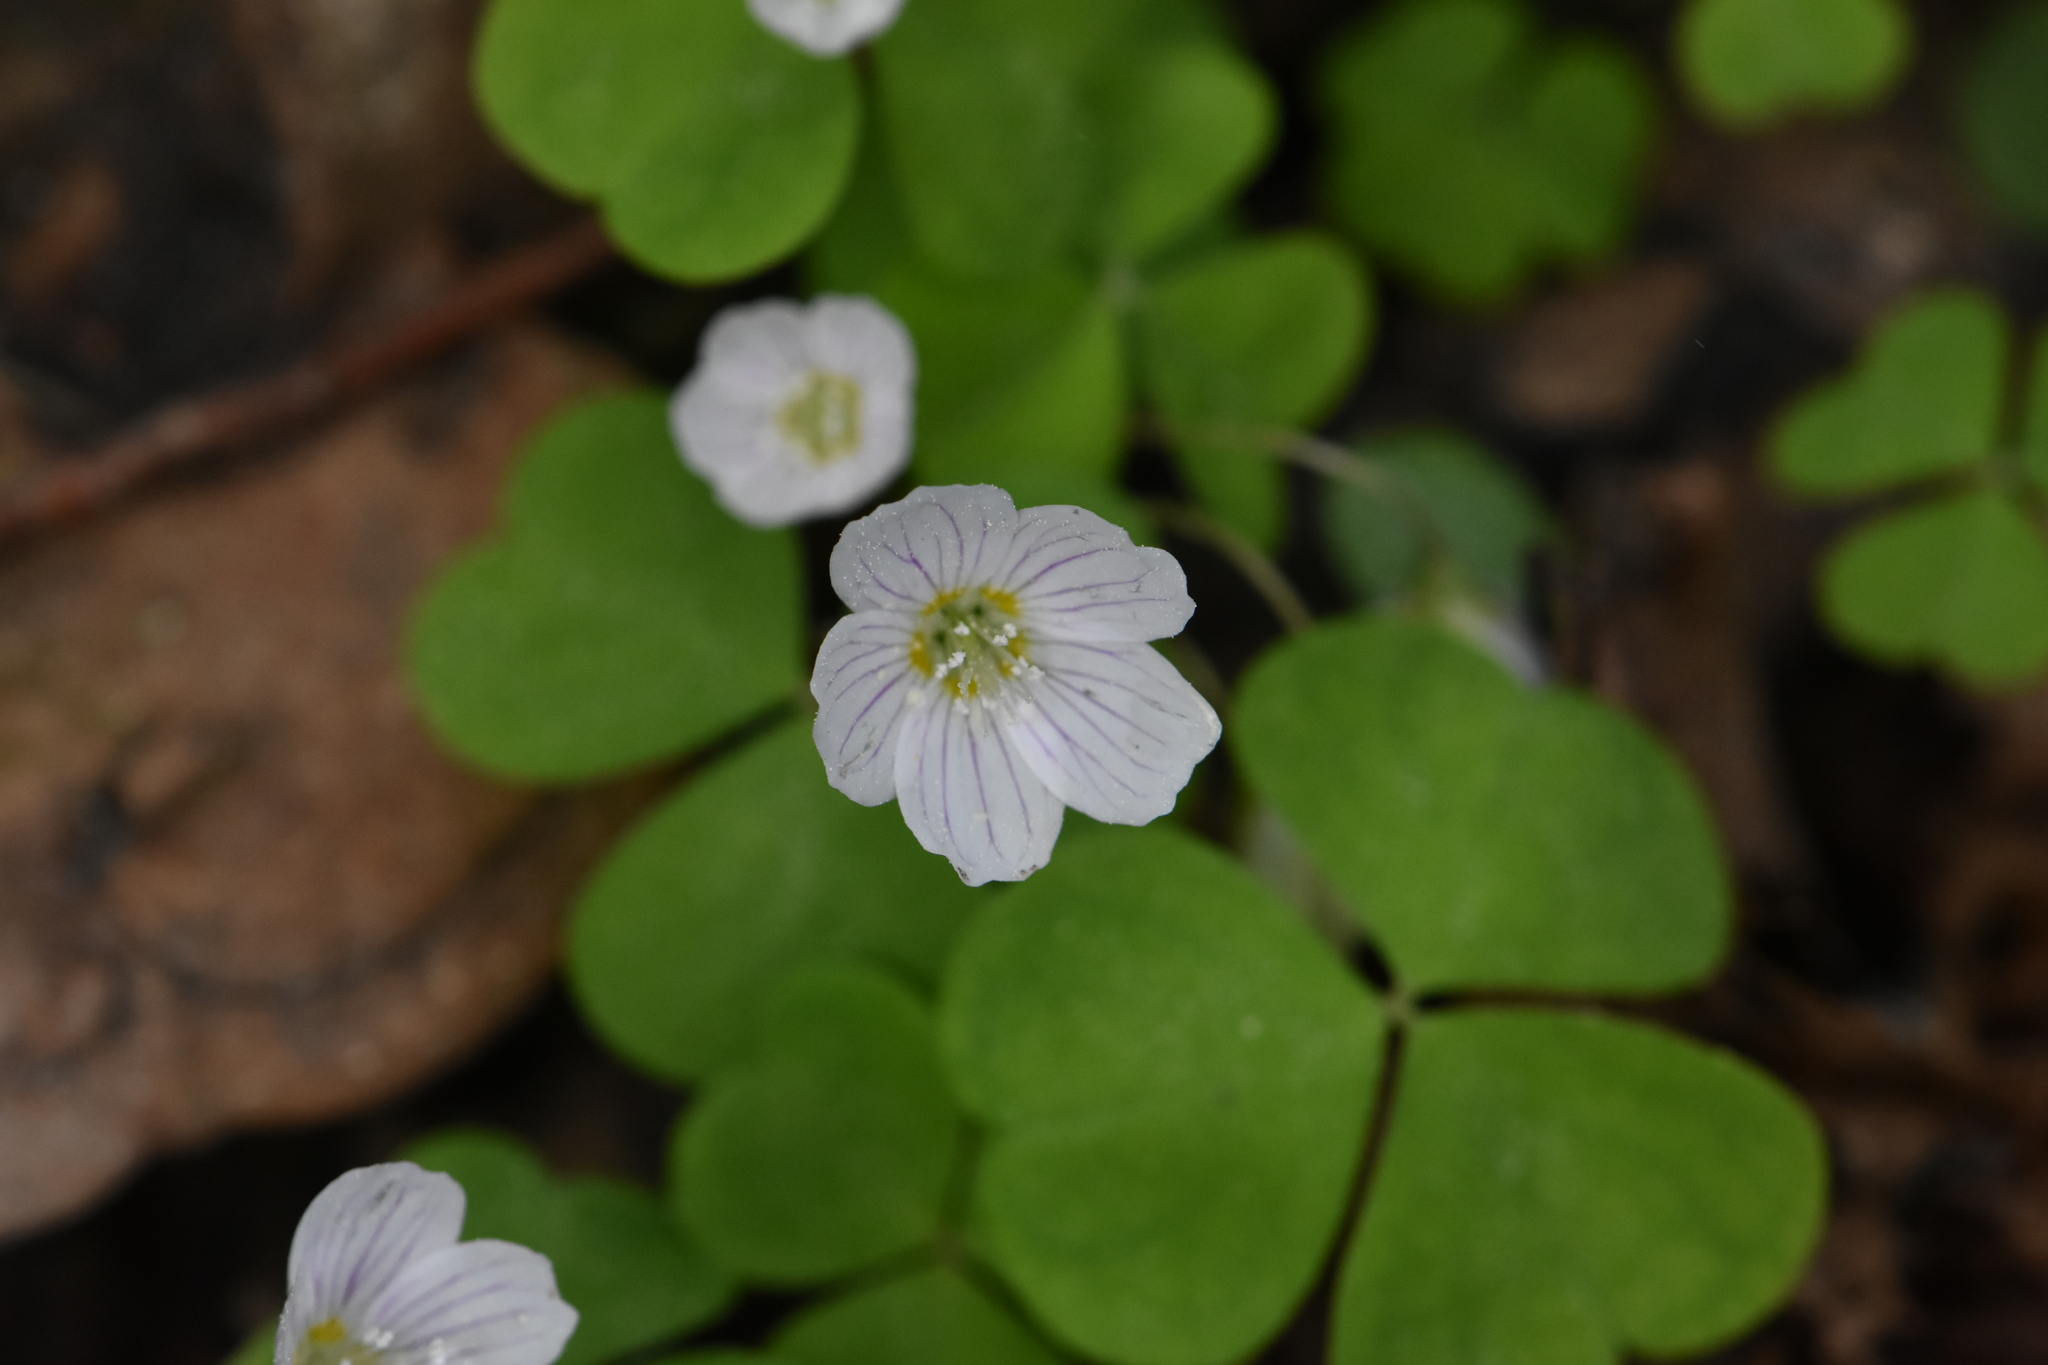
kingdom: Plantae
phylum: Tracheophyta
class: Magnoliopsida
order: Oxalidales
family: Oxalidaceae
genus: Oxalis
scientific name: Oxalis acetosella
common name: Wood-sorrel
